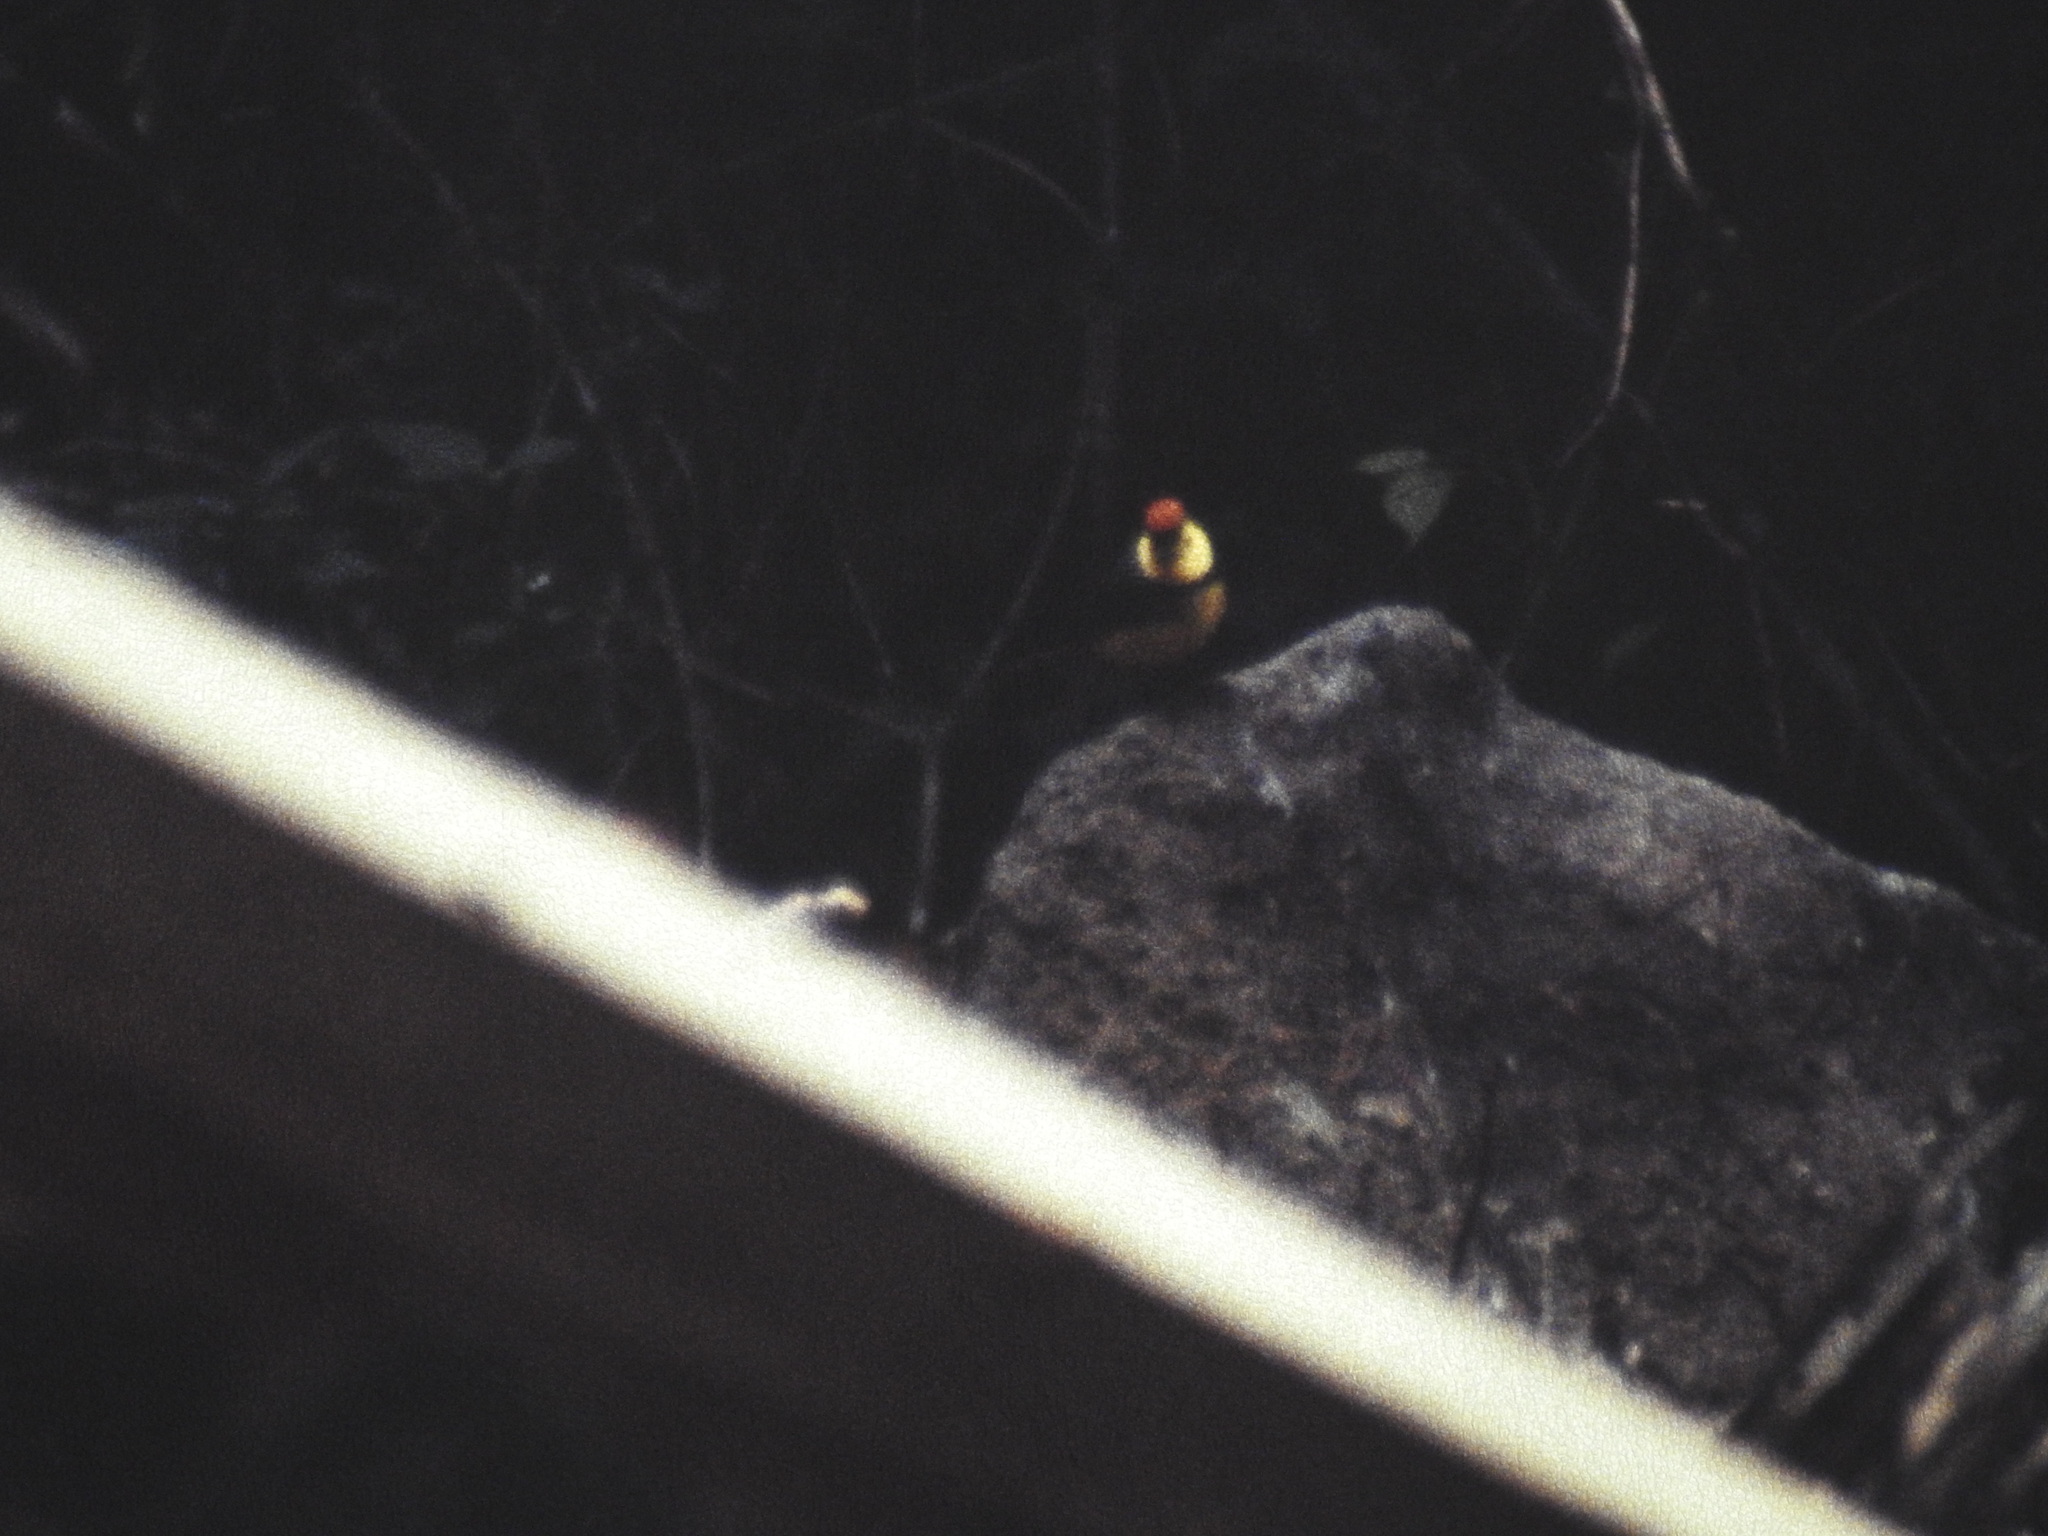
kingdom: Animalia
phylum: Chordata
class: Aves
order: Passeriformes
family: Parulidae
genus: Myioborus
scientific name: Myioborus torquatus
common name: Collared whitestart
